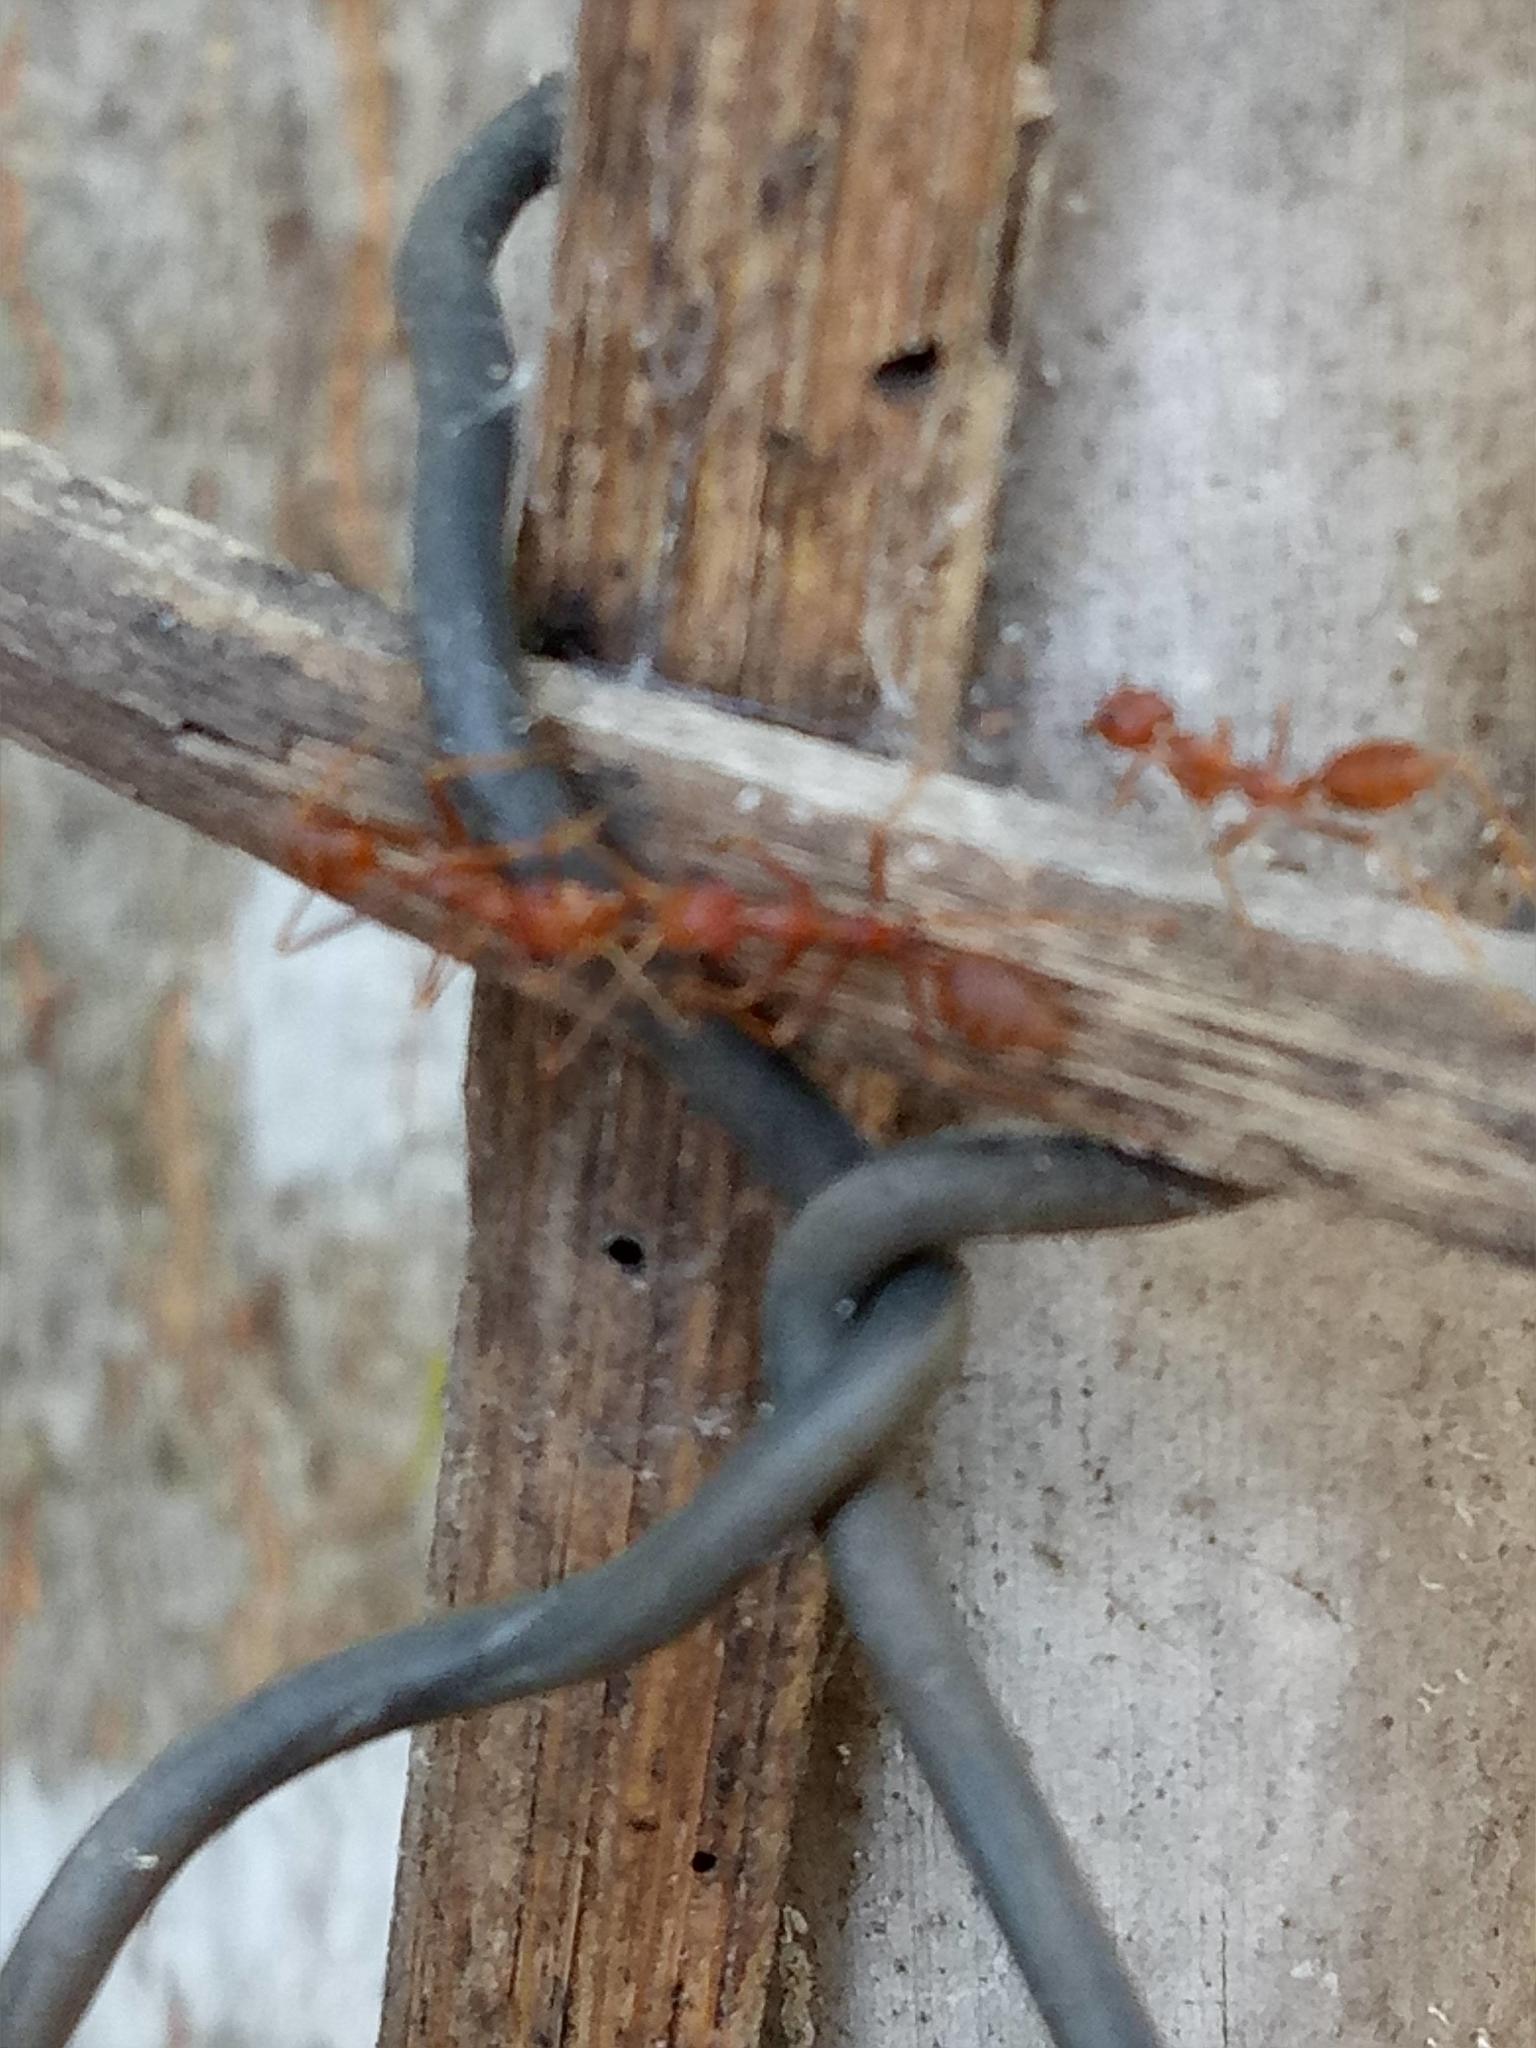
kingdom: Animalia
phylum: Arthropoda
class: Insecta
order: Hymenoptera
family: Formicidae
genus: Oecophylla
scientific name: Oecophylla smaragdina
